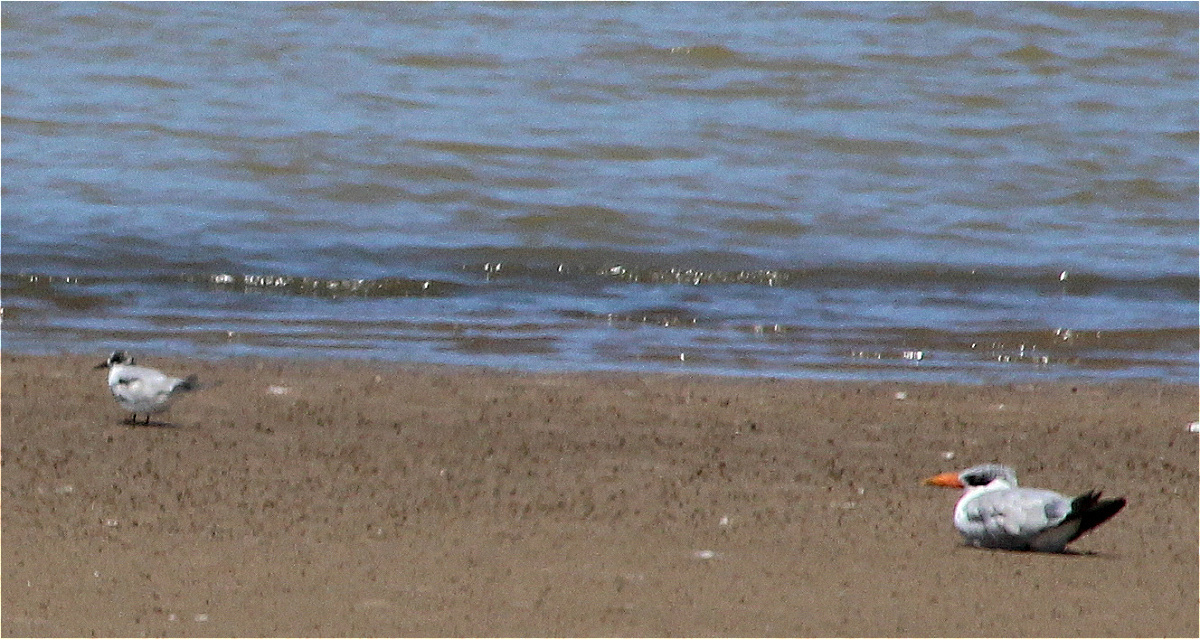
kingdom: Animalia
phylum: Chordata
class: Aves
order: Charadriiformes
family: Laridae
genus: Hydroprogne
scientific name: Hydroprogne caspia
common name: Caspian tern
